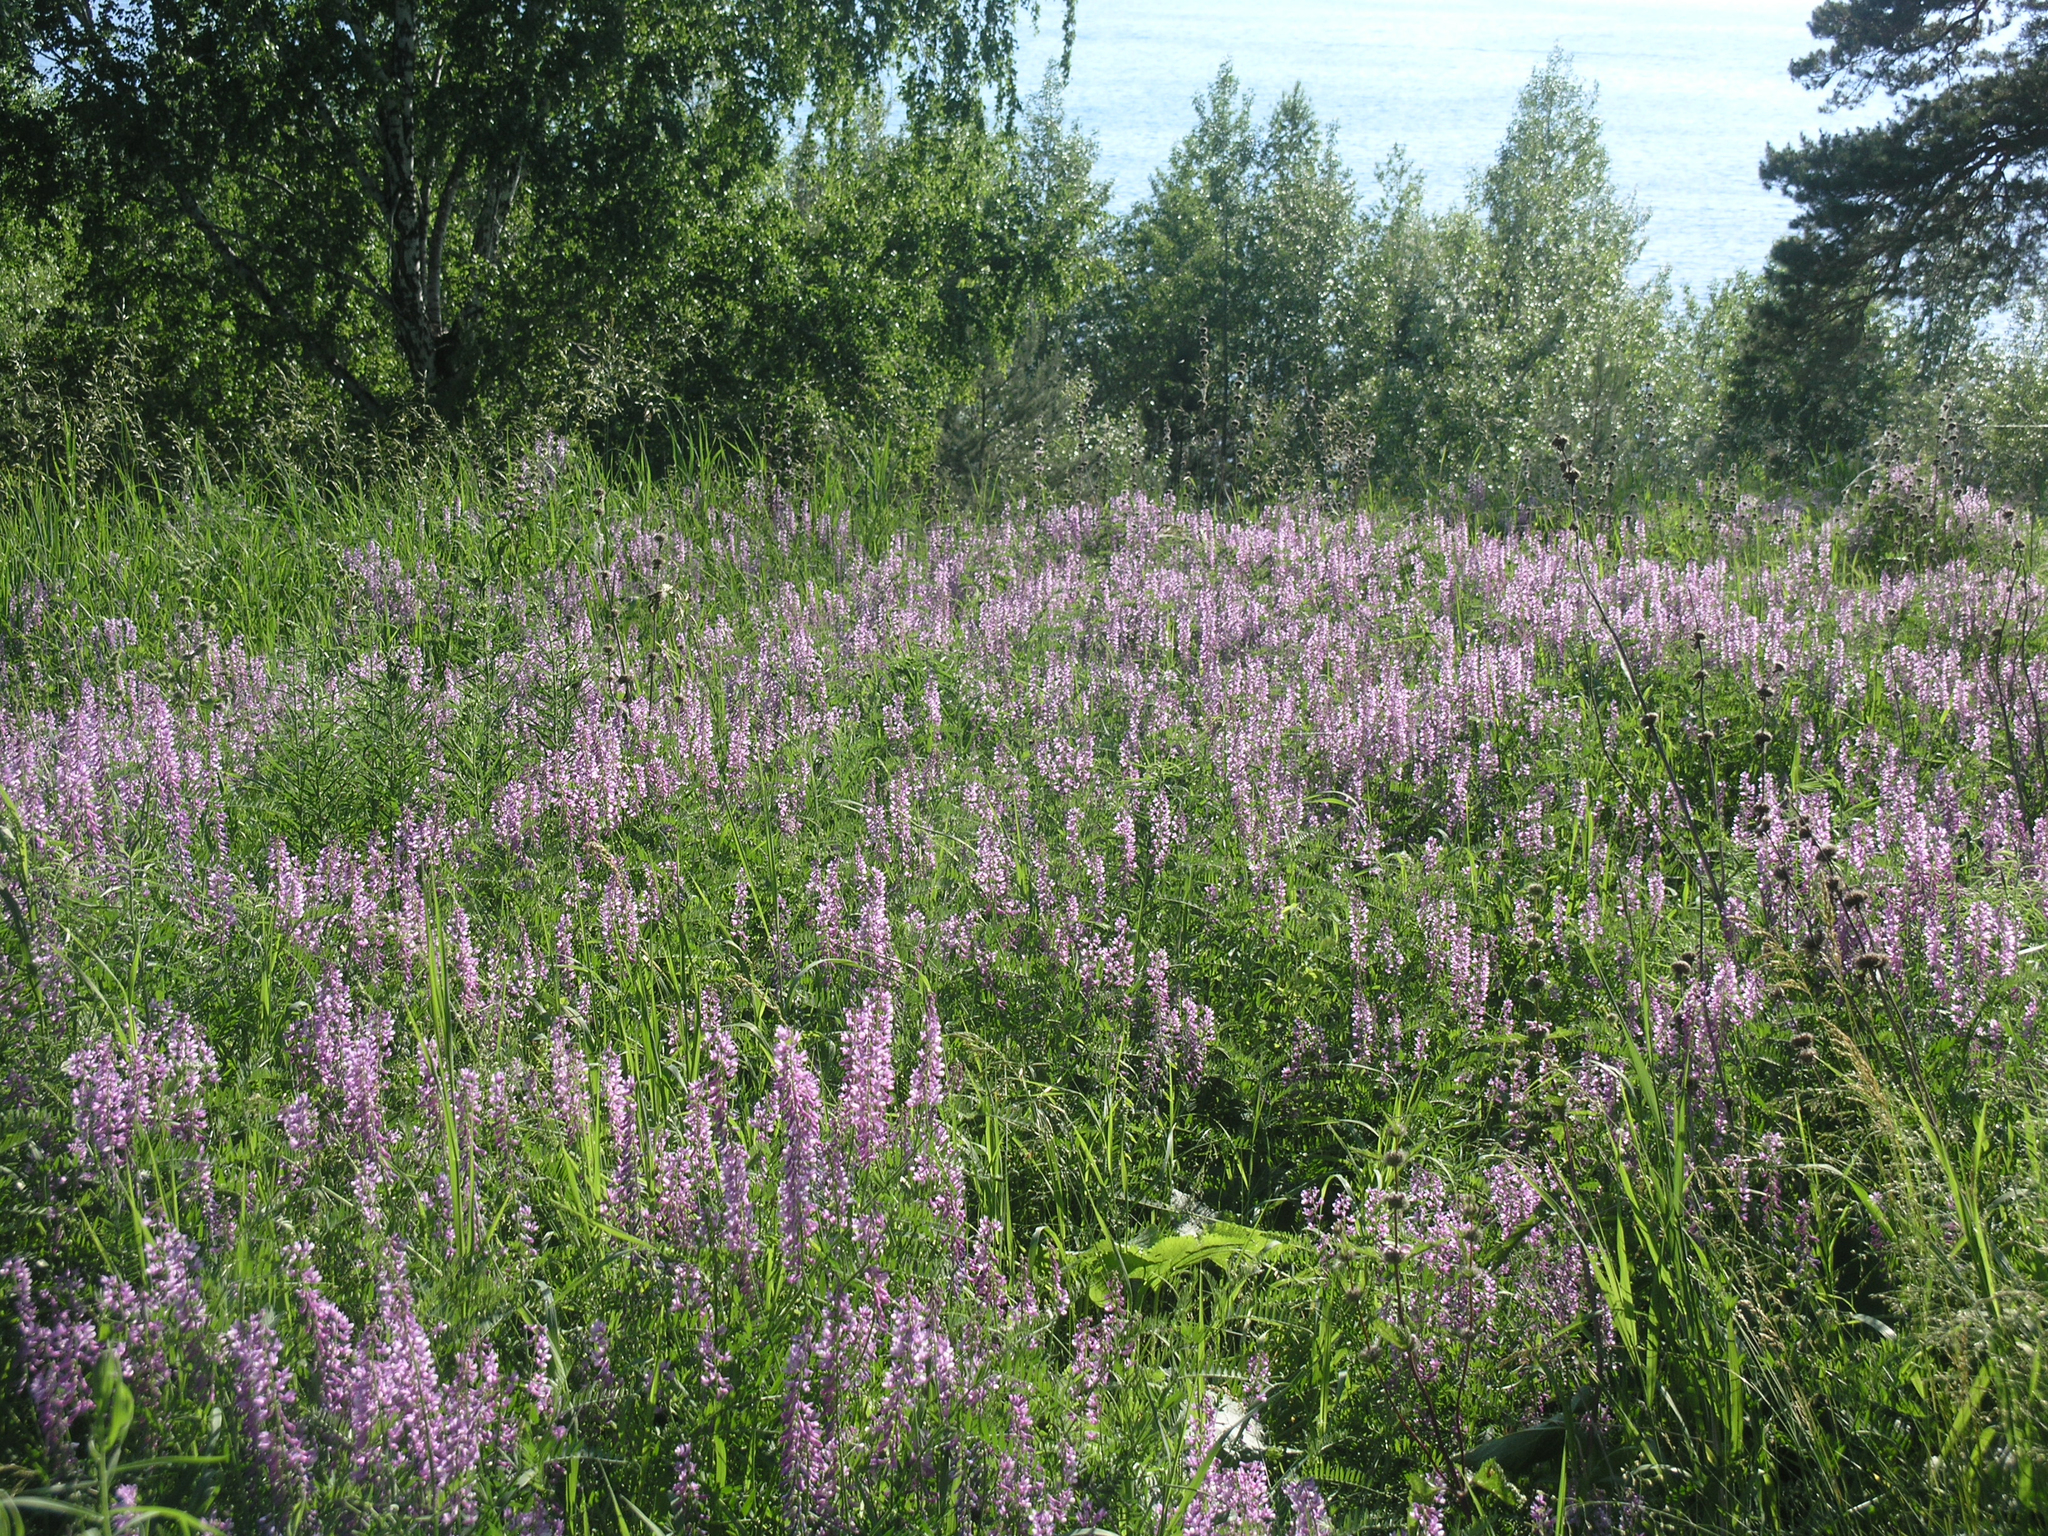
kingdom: Plantae
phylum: Tracheophyta
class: Magnoliopsida
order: Fabales
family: Fabaceae
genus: Vicia
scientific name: Vicia tenuifolia
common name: Fine-leaved vetch
